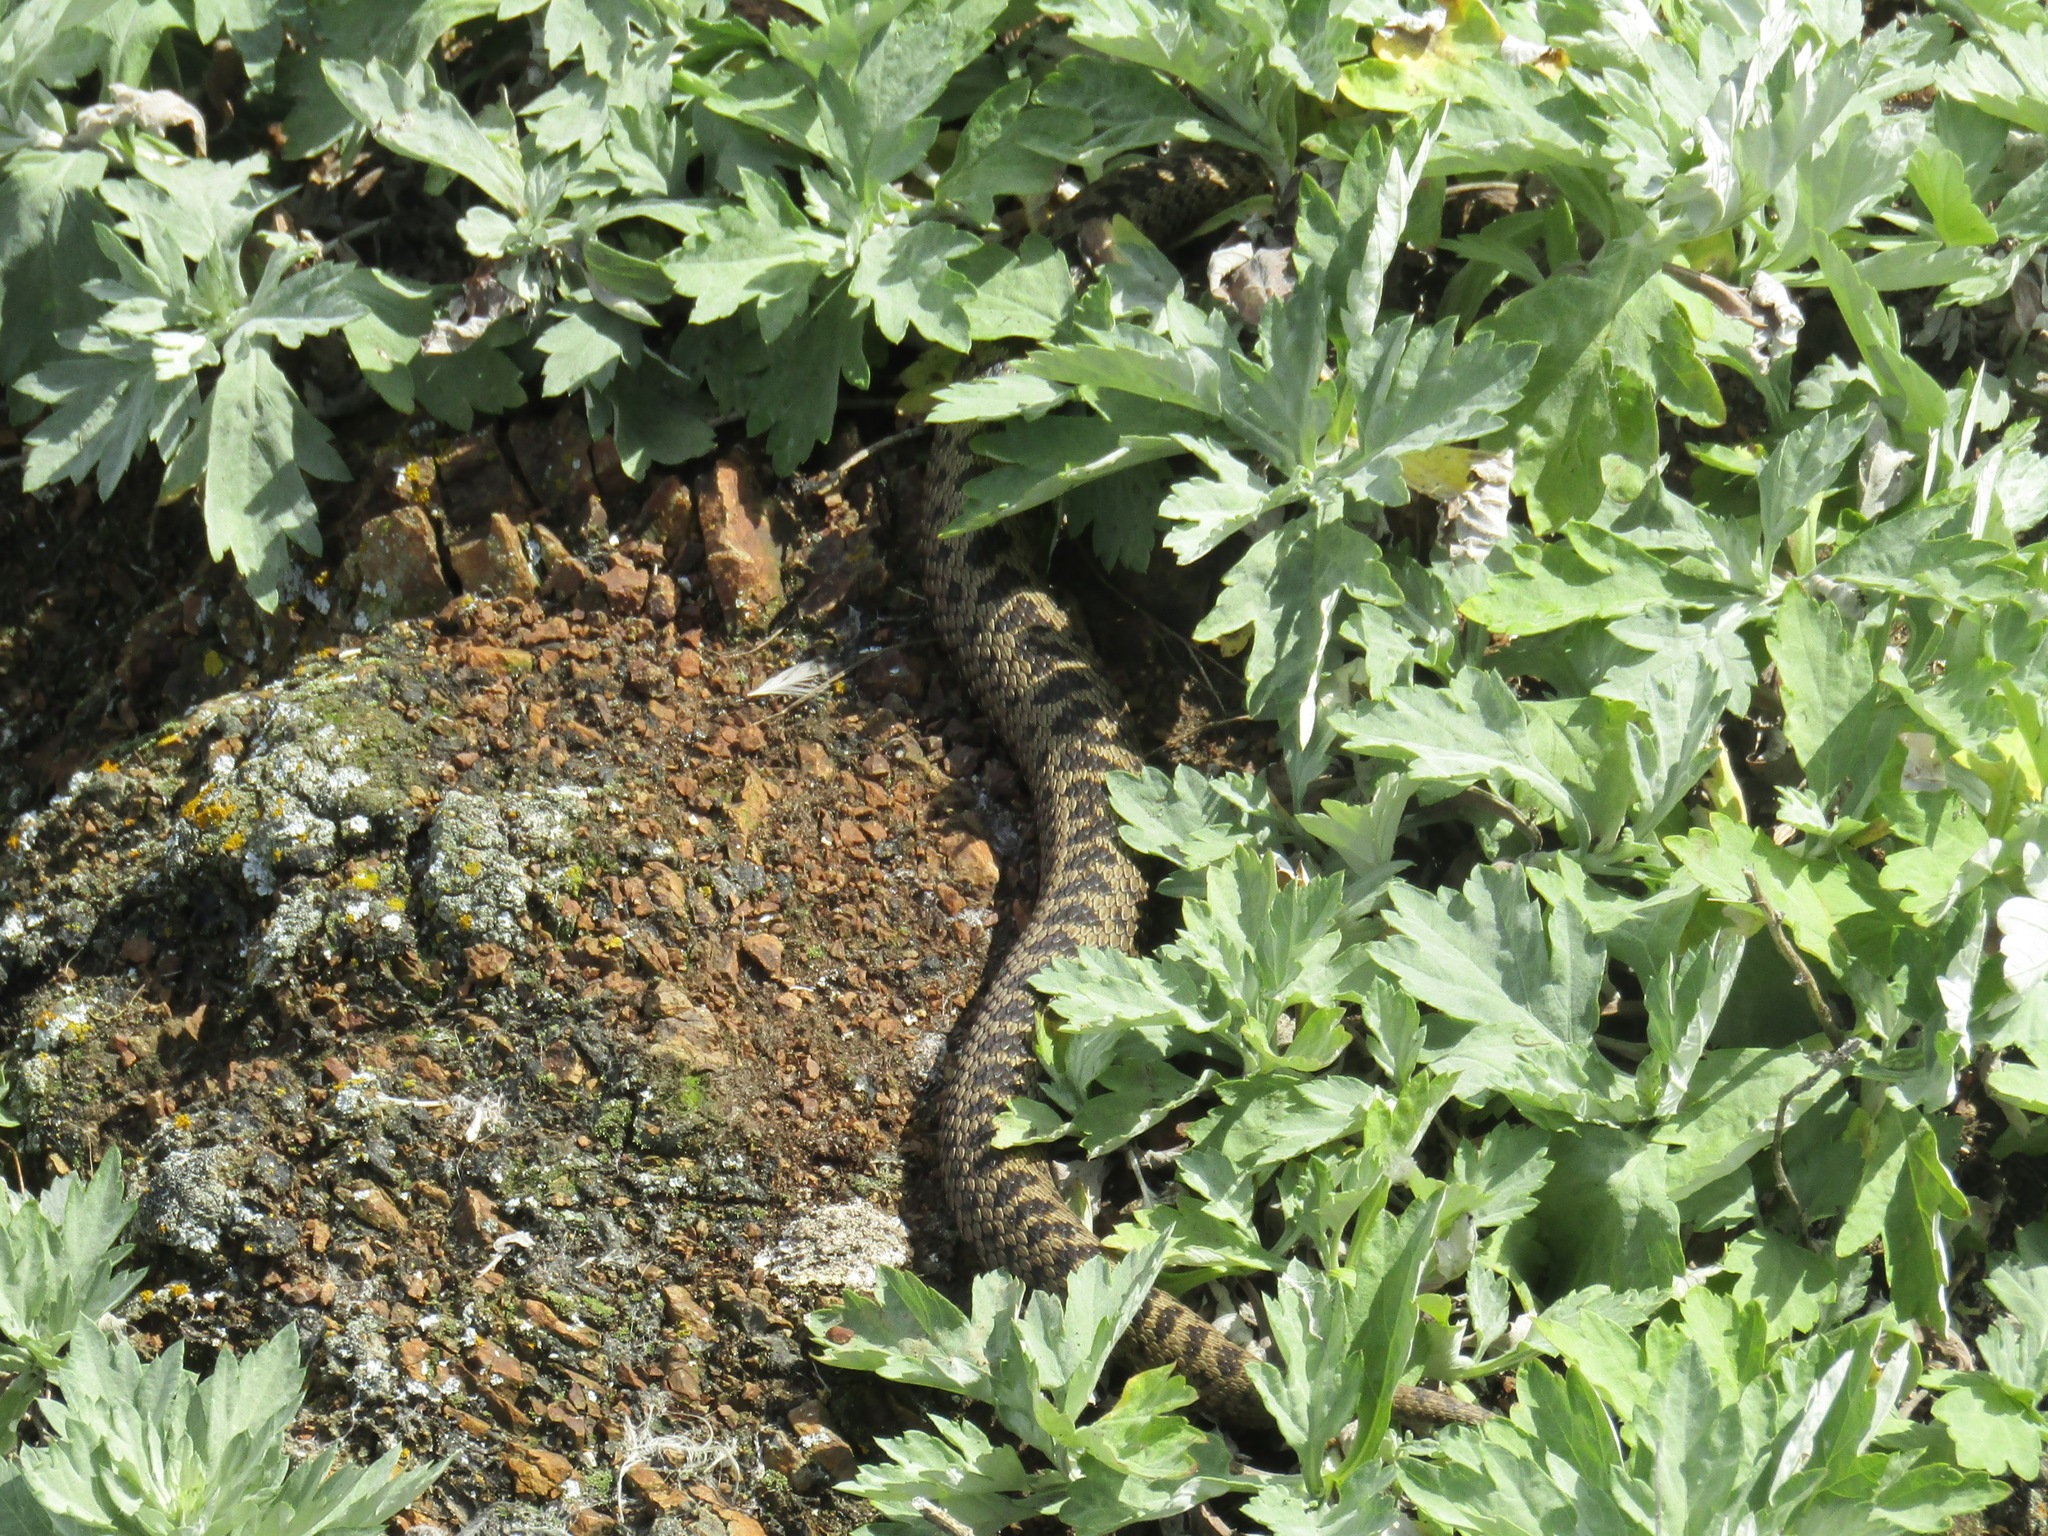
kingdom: Animalia
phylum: Chordata
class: Squamata
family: Viperidae
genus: Vipera
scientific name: Vipera berus
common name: Adder
